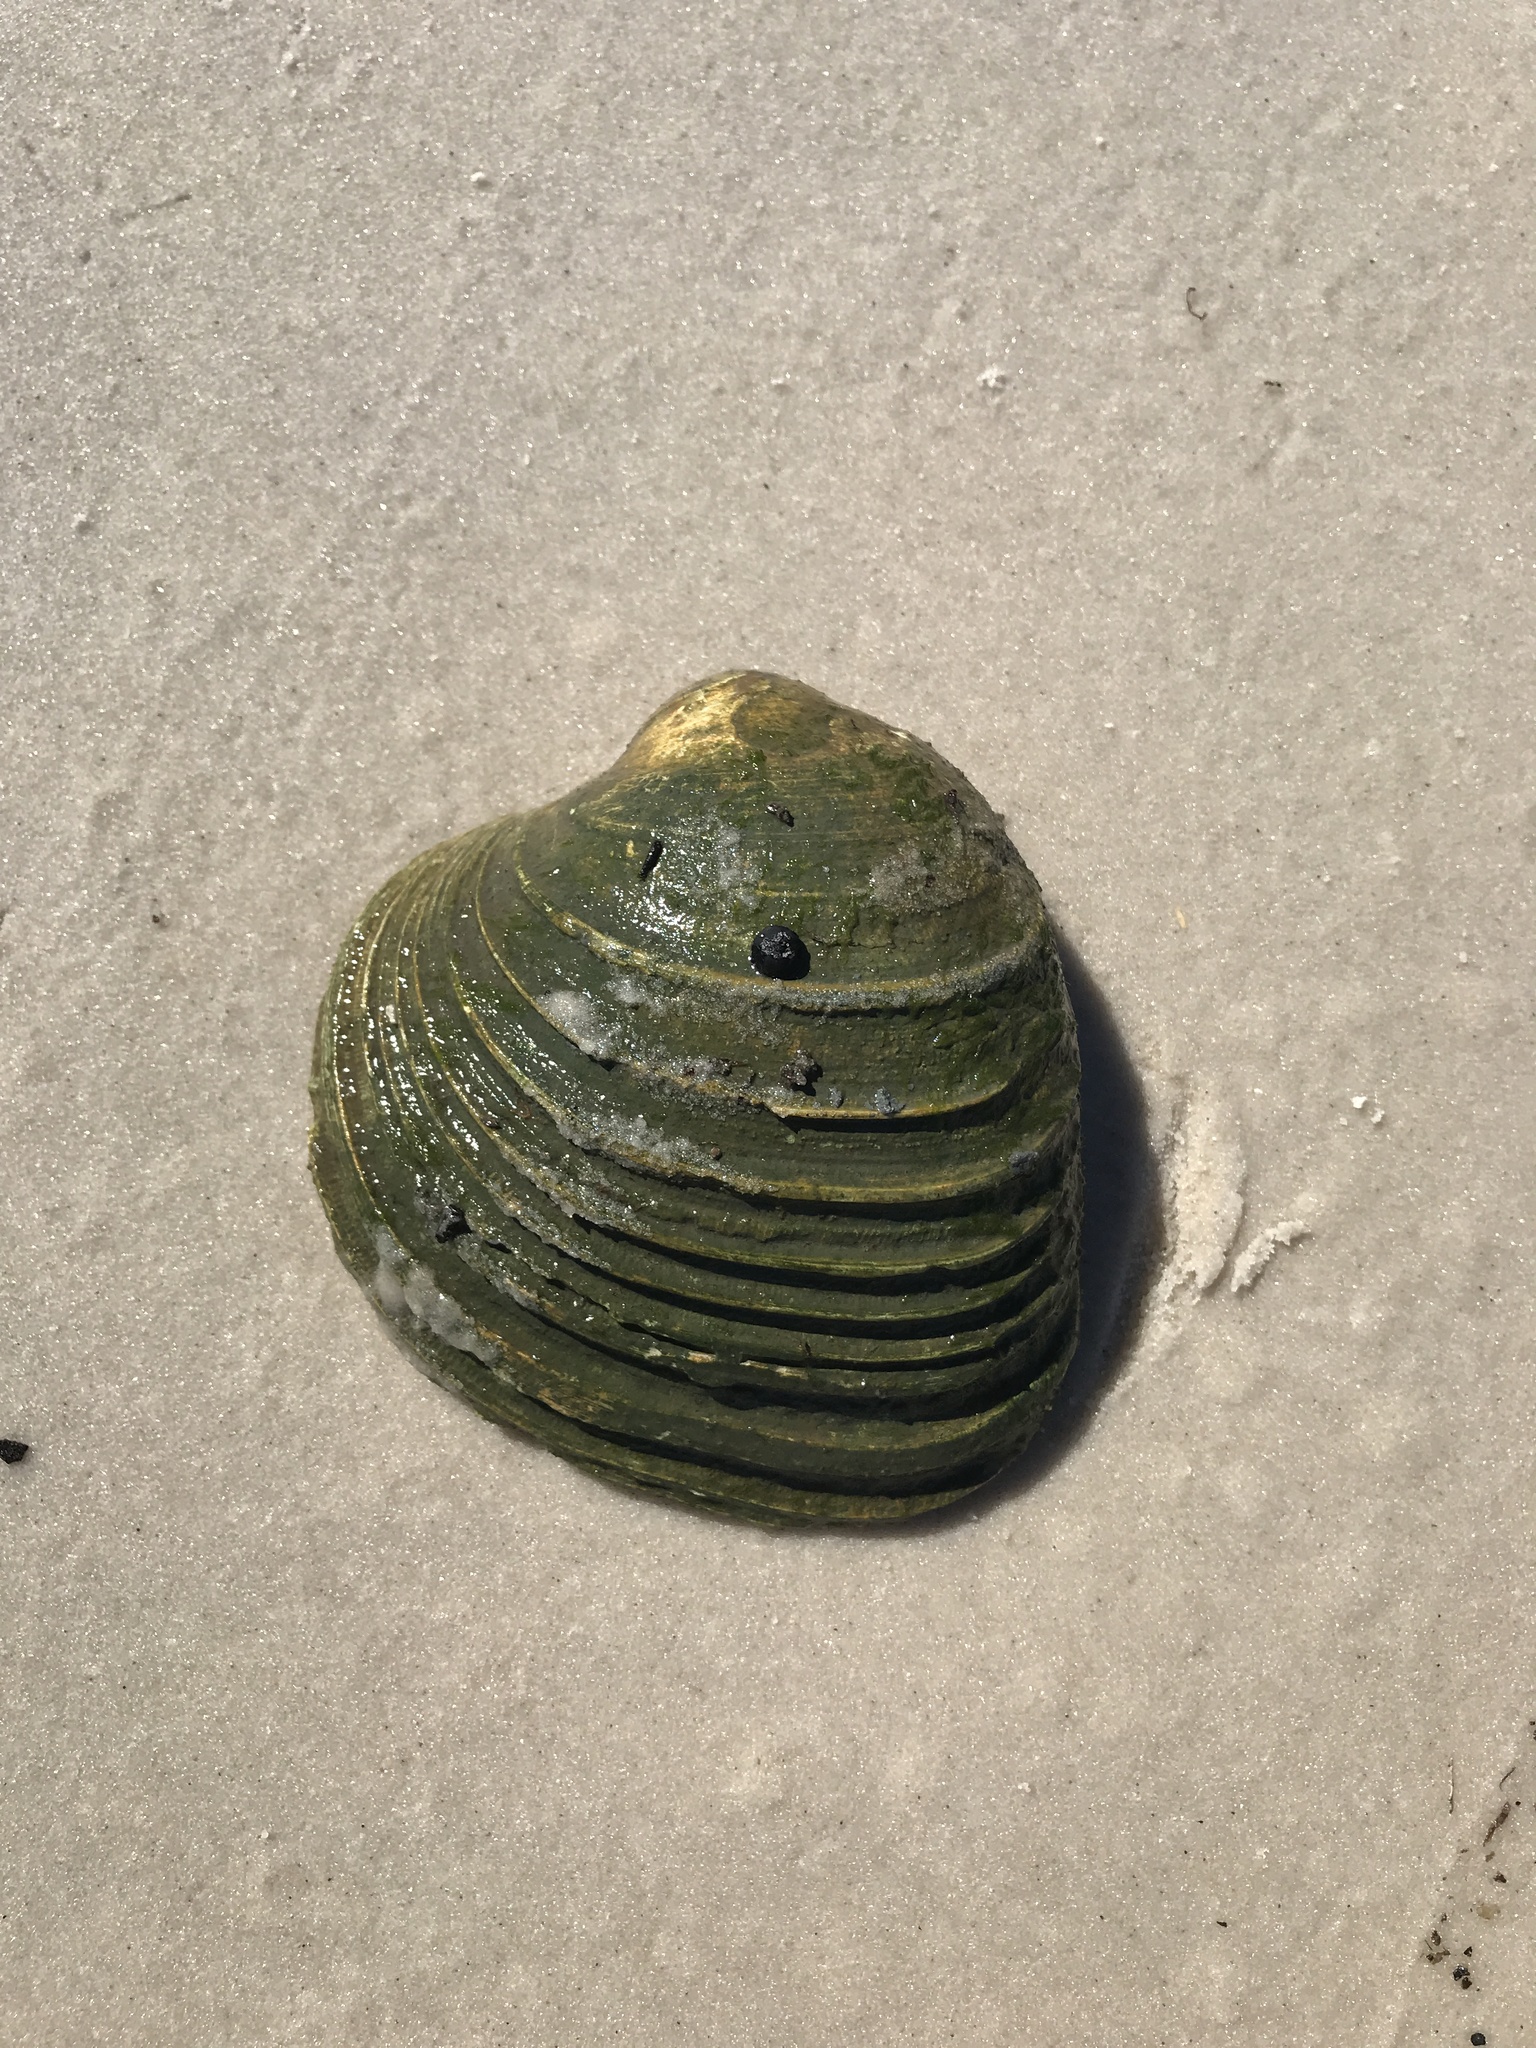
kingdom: Animalia
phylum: Mollusca
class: Bivalvia
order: Venerida
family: Veneridae
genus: Mercenaria
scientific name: Mercenaria campechiensis
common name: Südliche quahog-muschel
